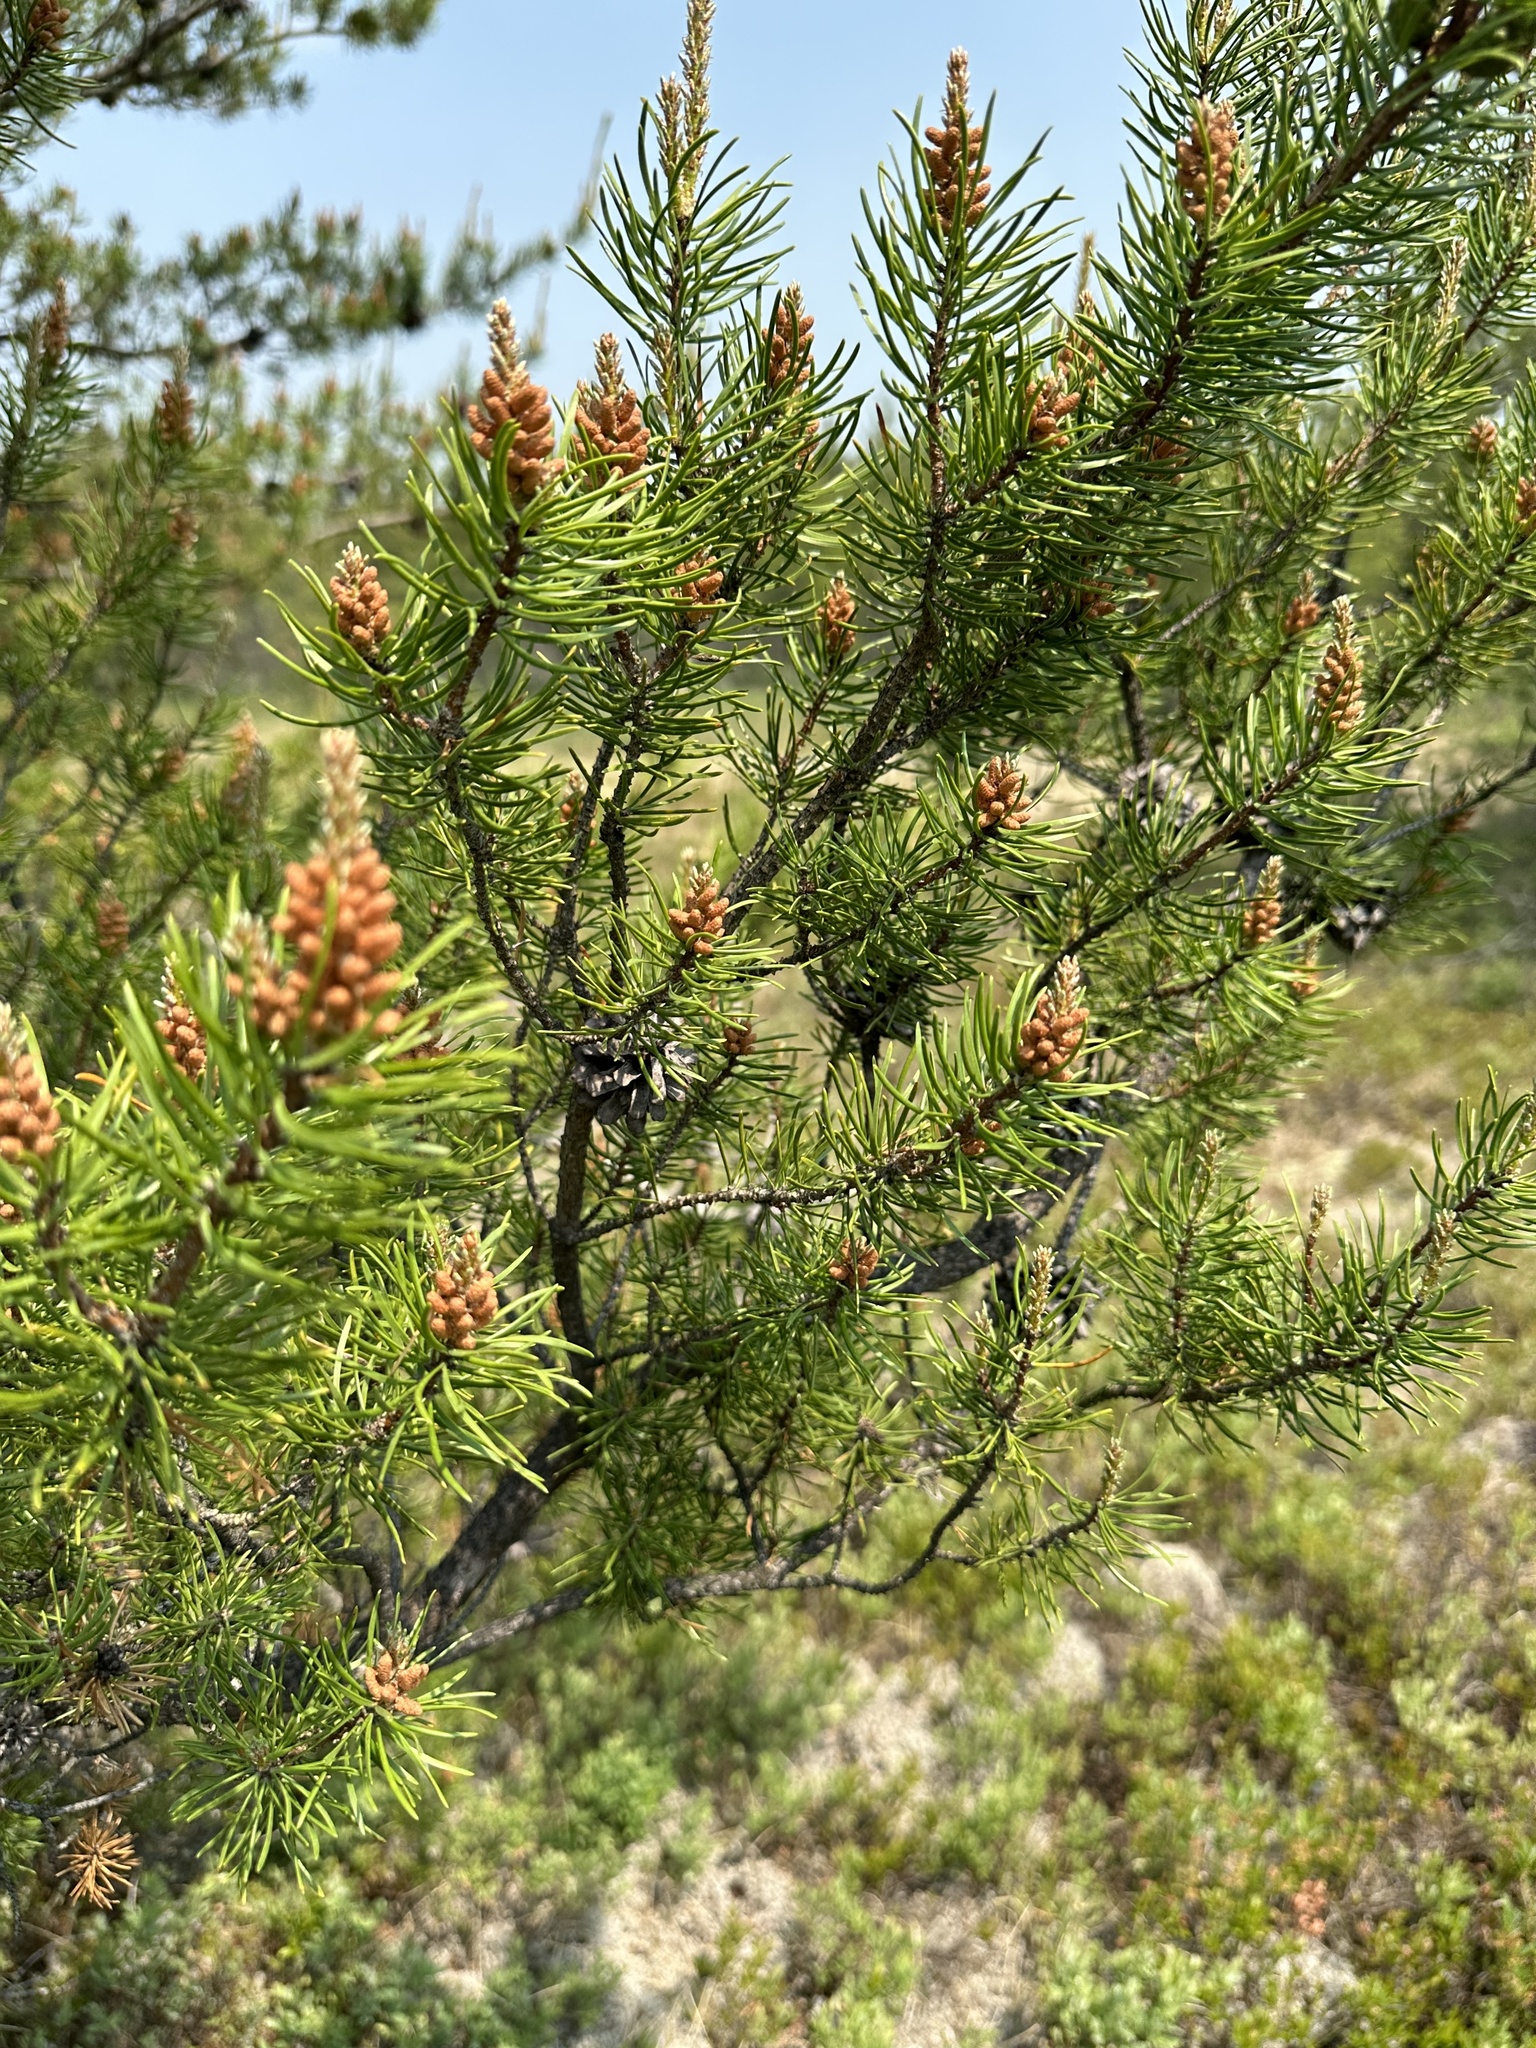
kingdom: Plantae
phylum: Tracheophyta
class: Pinopsida
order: Pinales
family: Pinaceae
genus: Pinus
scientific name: Pinus banksiana
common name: Jack pine
